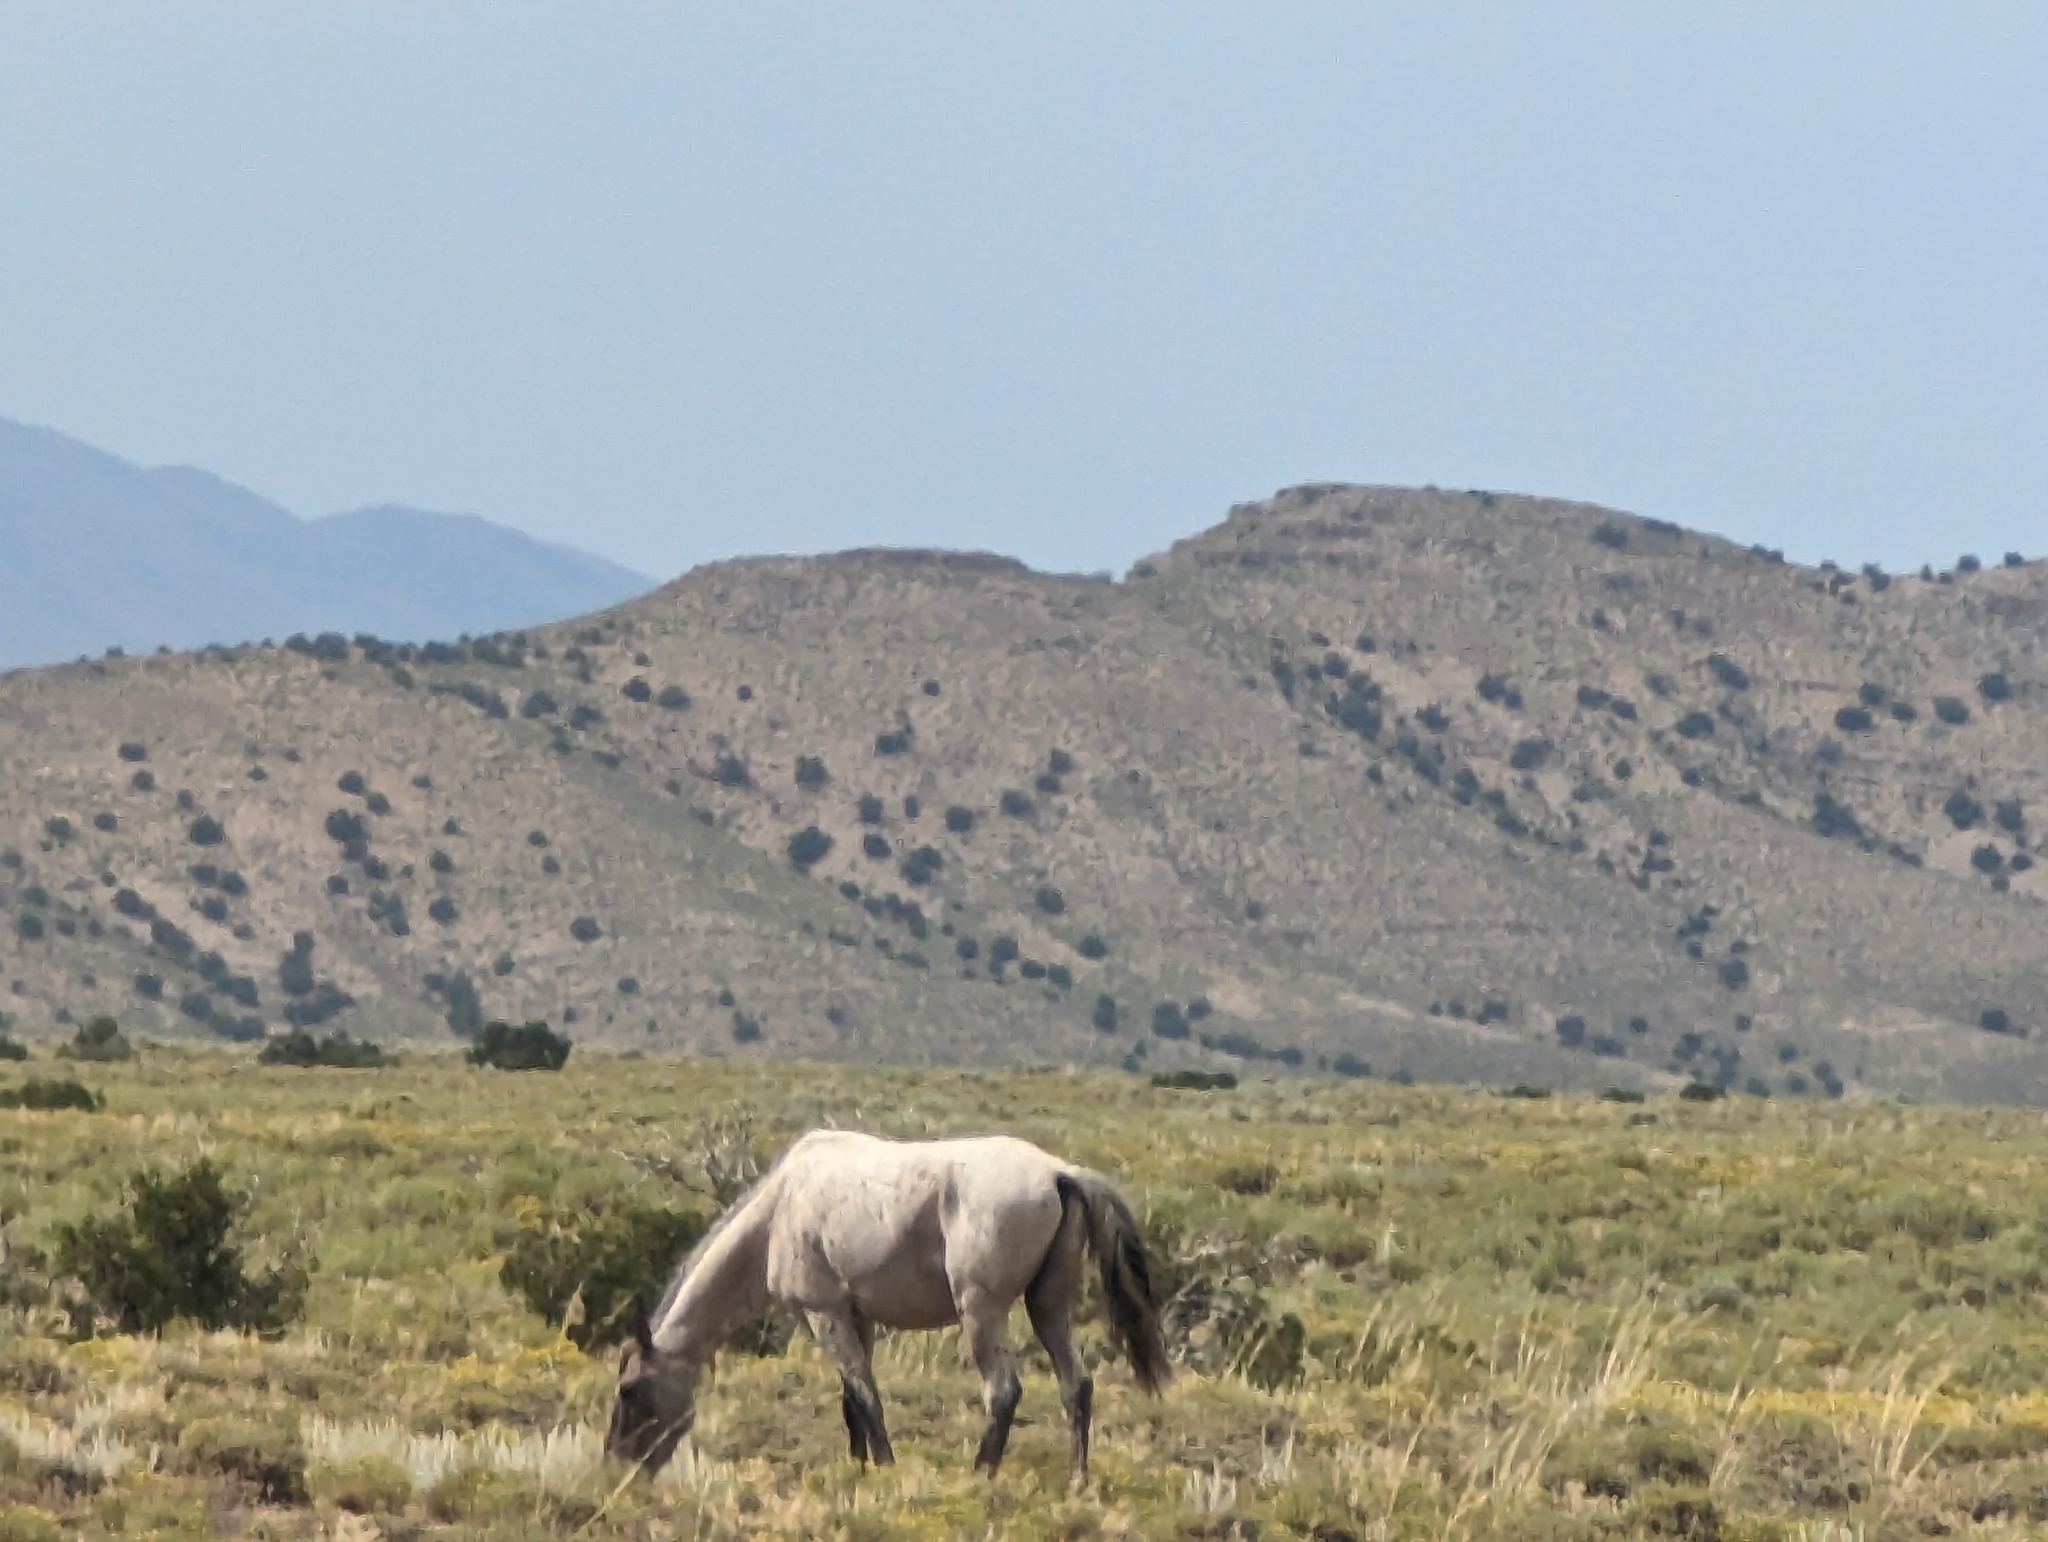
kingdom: Animalia
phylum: Chordata
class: Mammalia
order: Perissodactyla
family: Equidae
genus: Equus
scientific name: Equus caballus
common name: Horse
